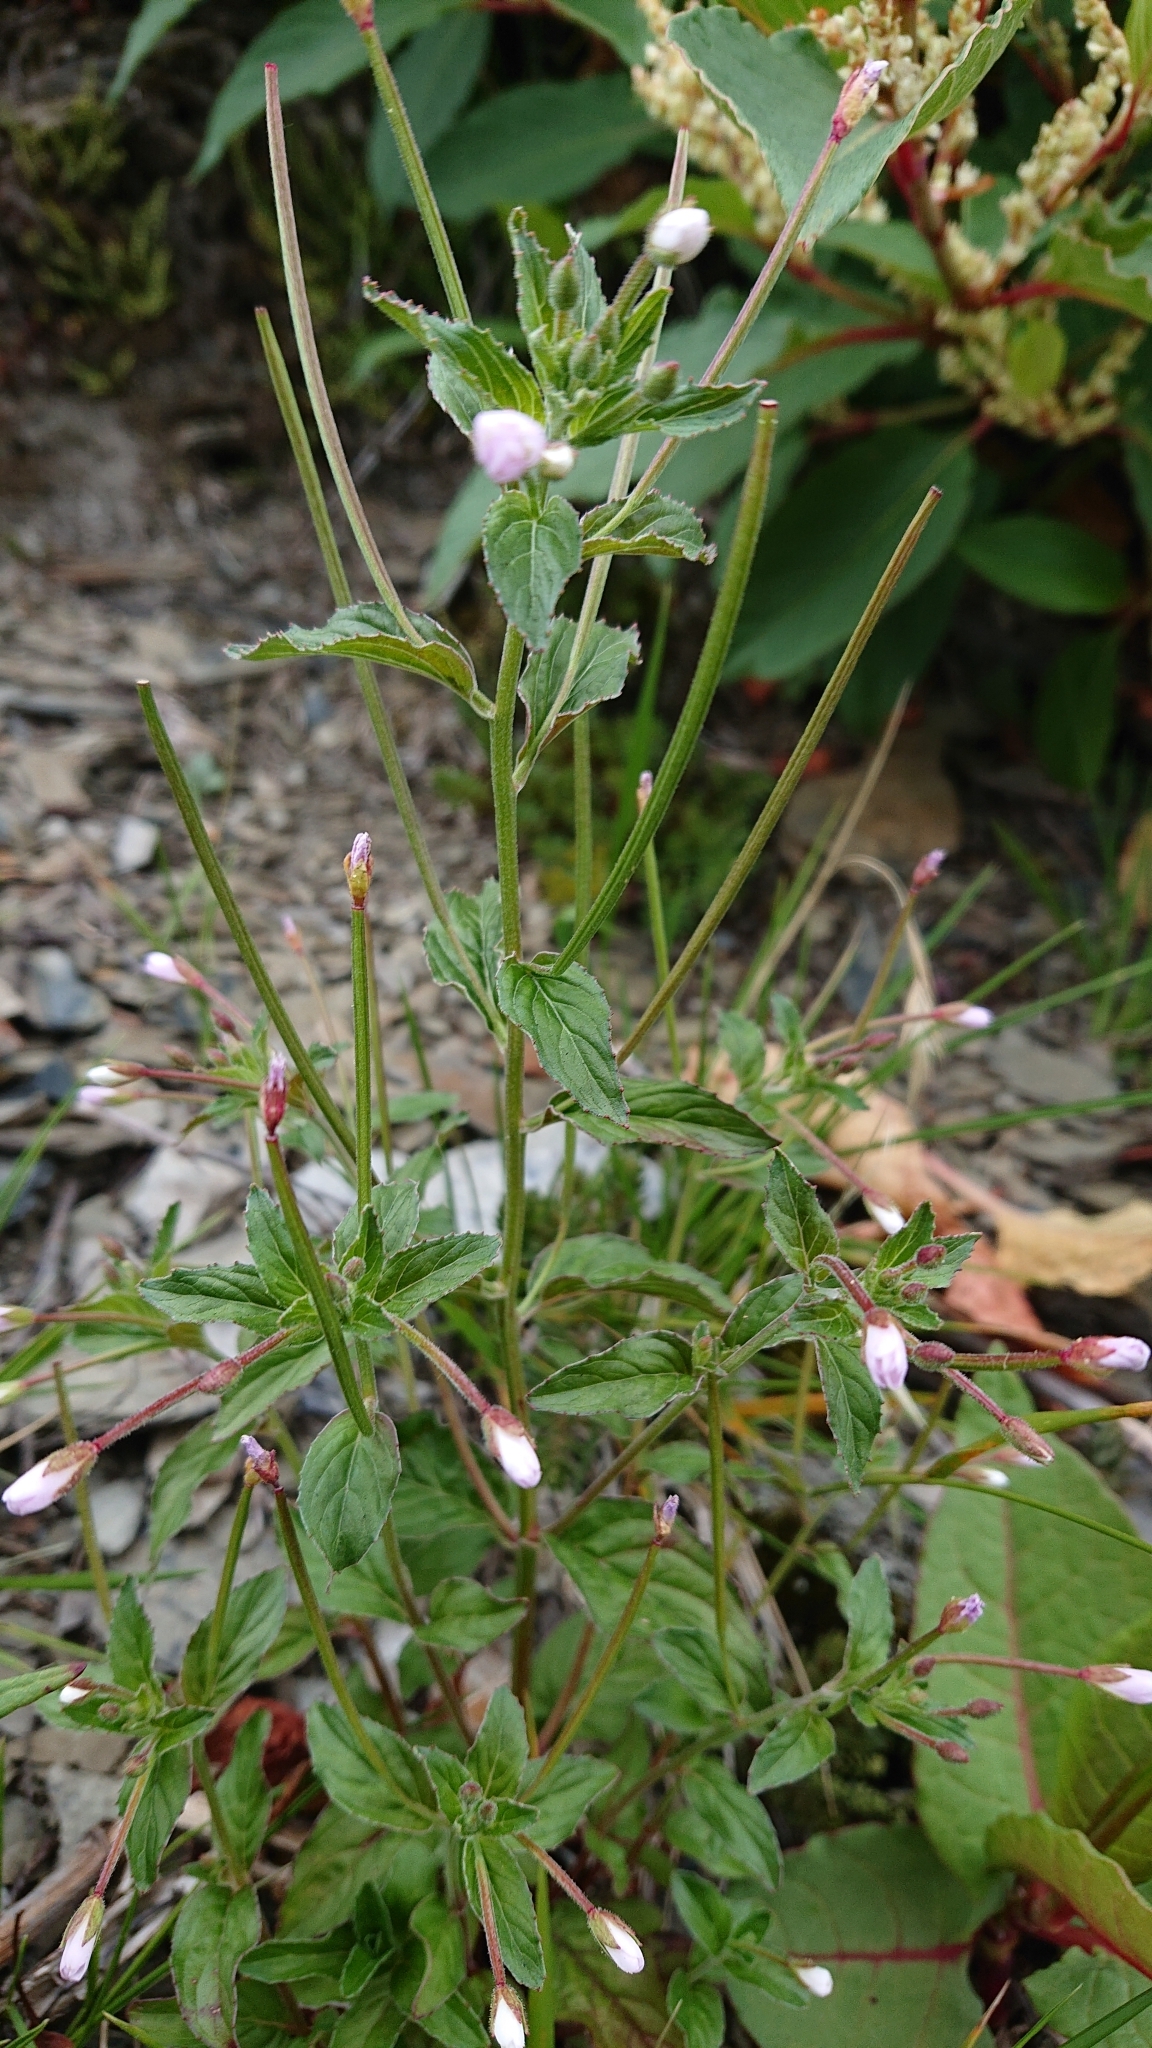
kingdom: Plantae
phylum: Tracheophyta
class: Magnoliopsida
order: Myrtales
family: Onagraceae
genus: Epilobium
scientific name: Epilobium amurense
